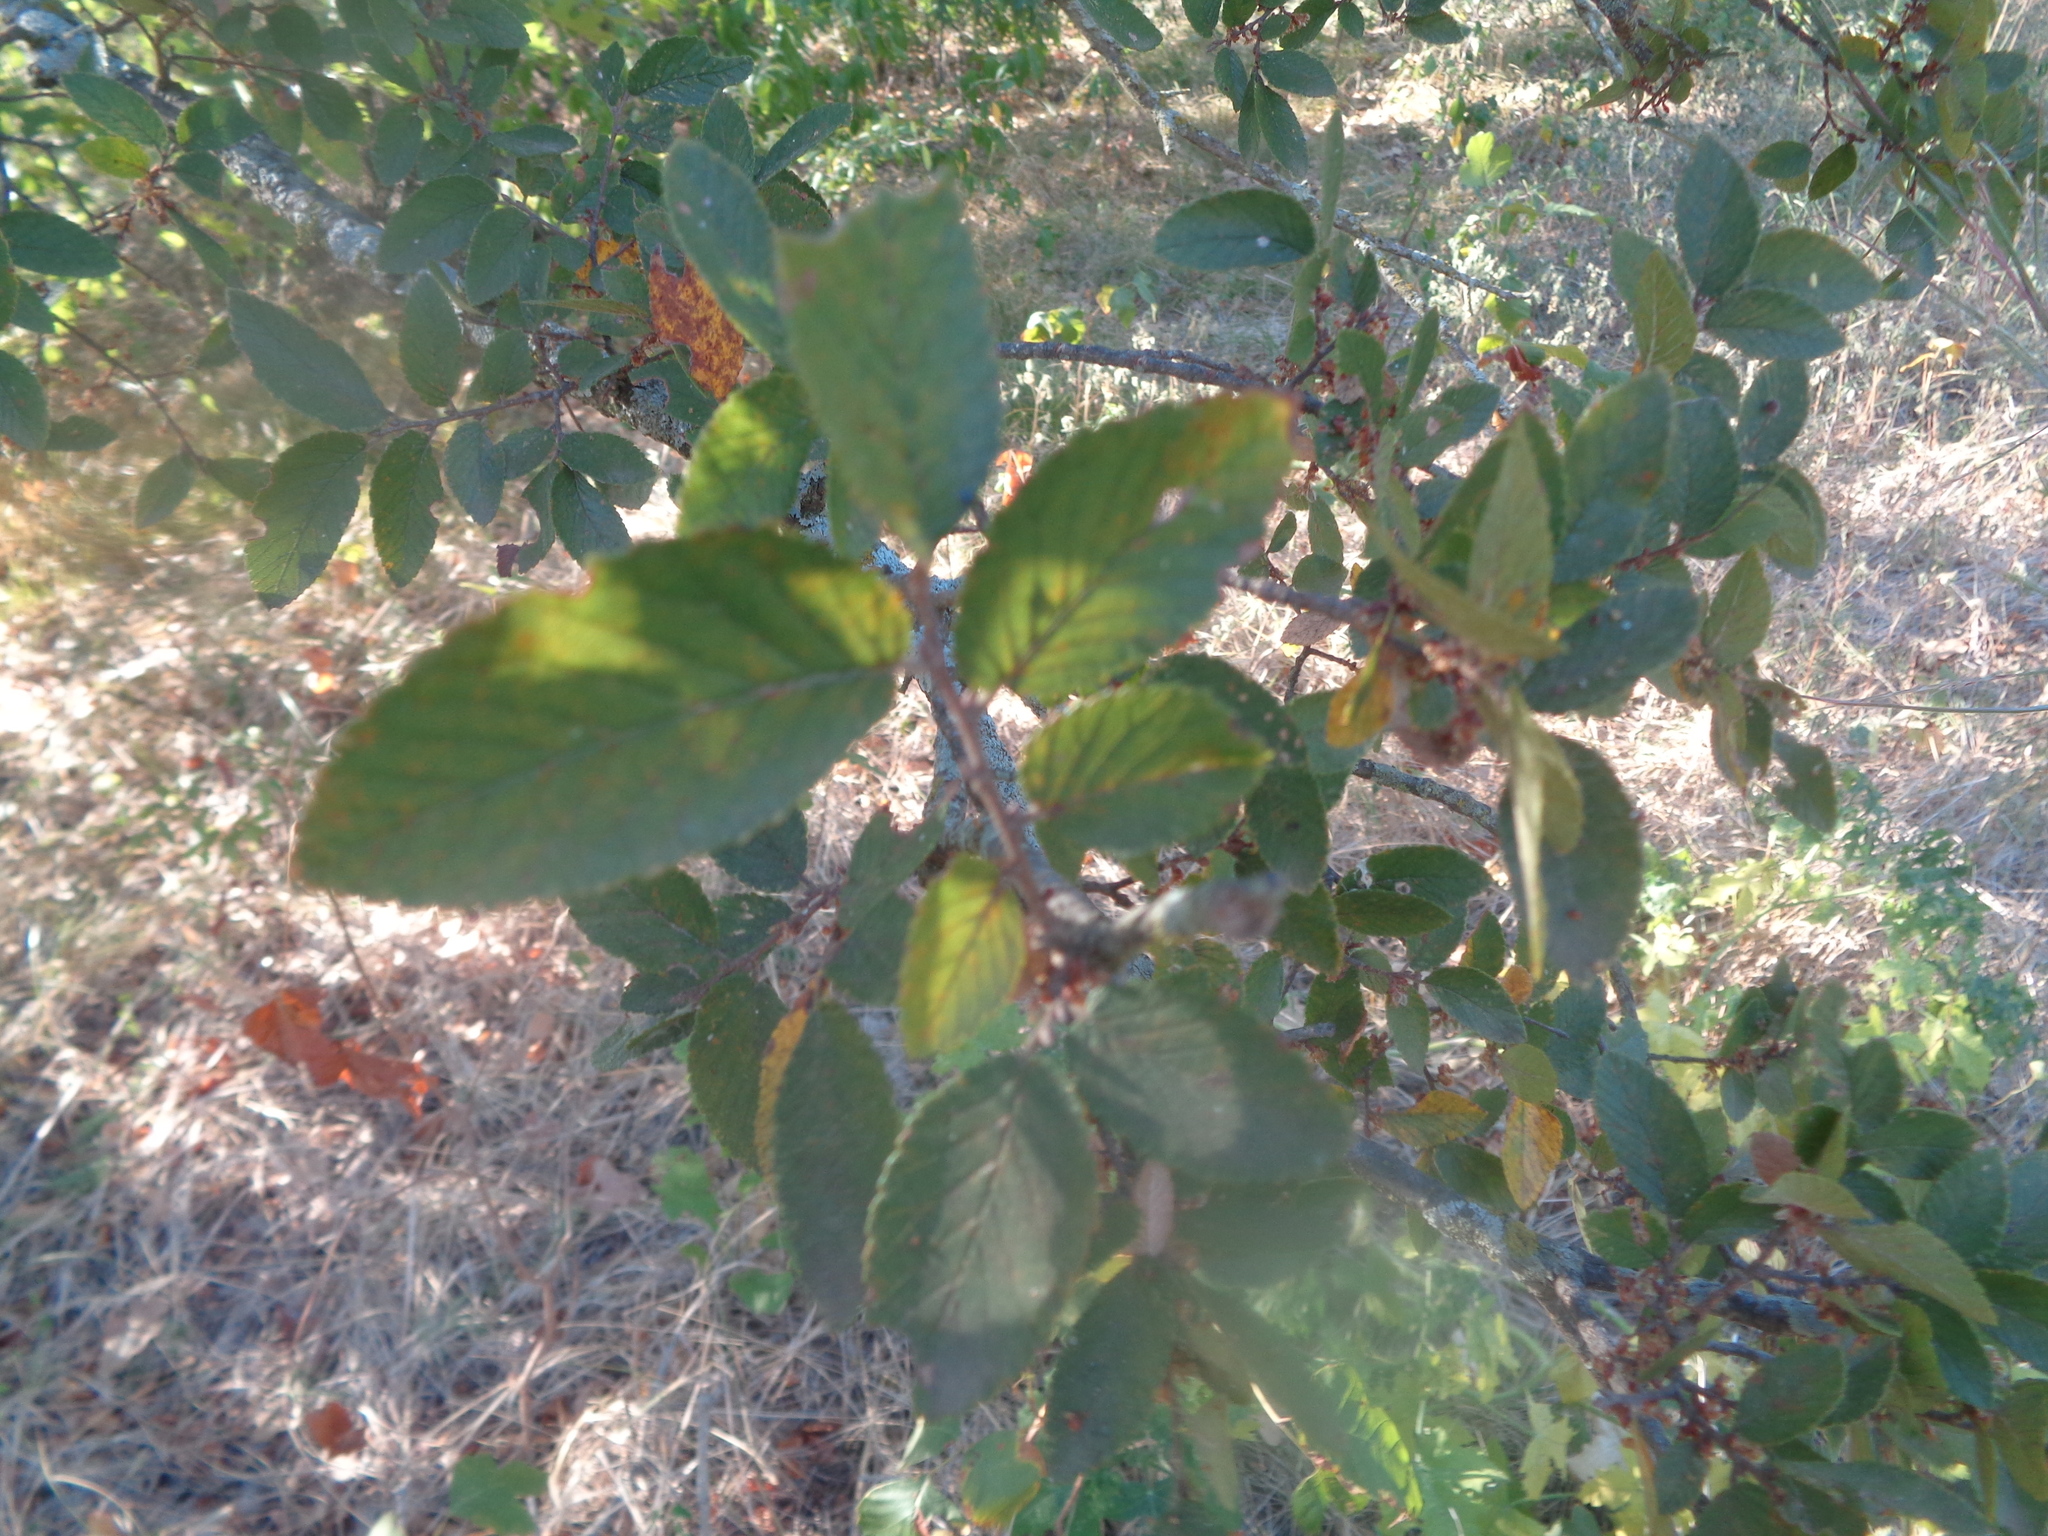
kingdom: Plantae
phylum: Tracheophyta
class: Magnoliopsida
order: Rosales
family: Ulmaceae
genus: Ulmus
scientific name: Ulmus crassifolia
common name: Basket elm
